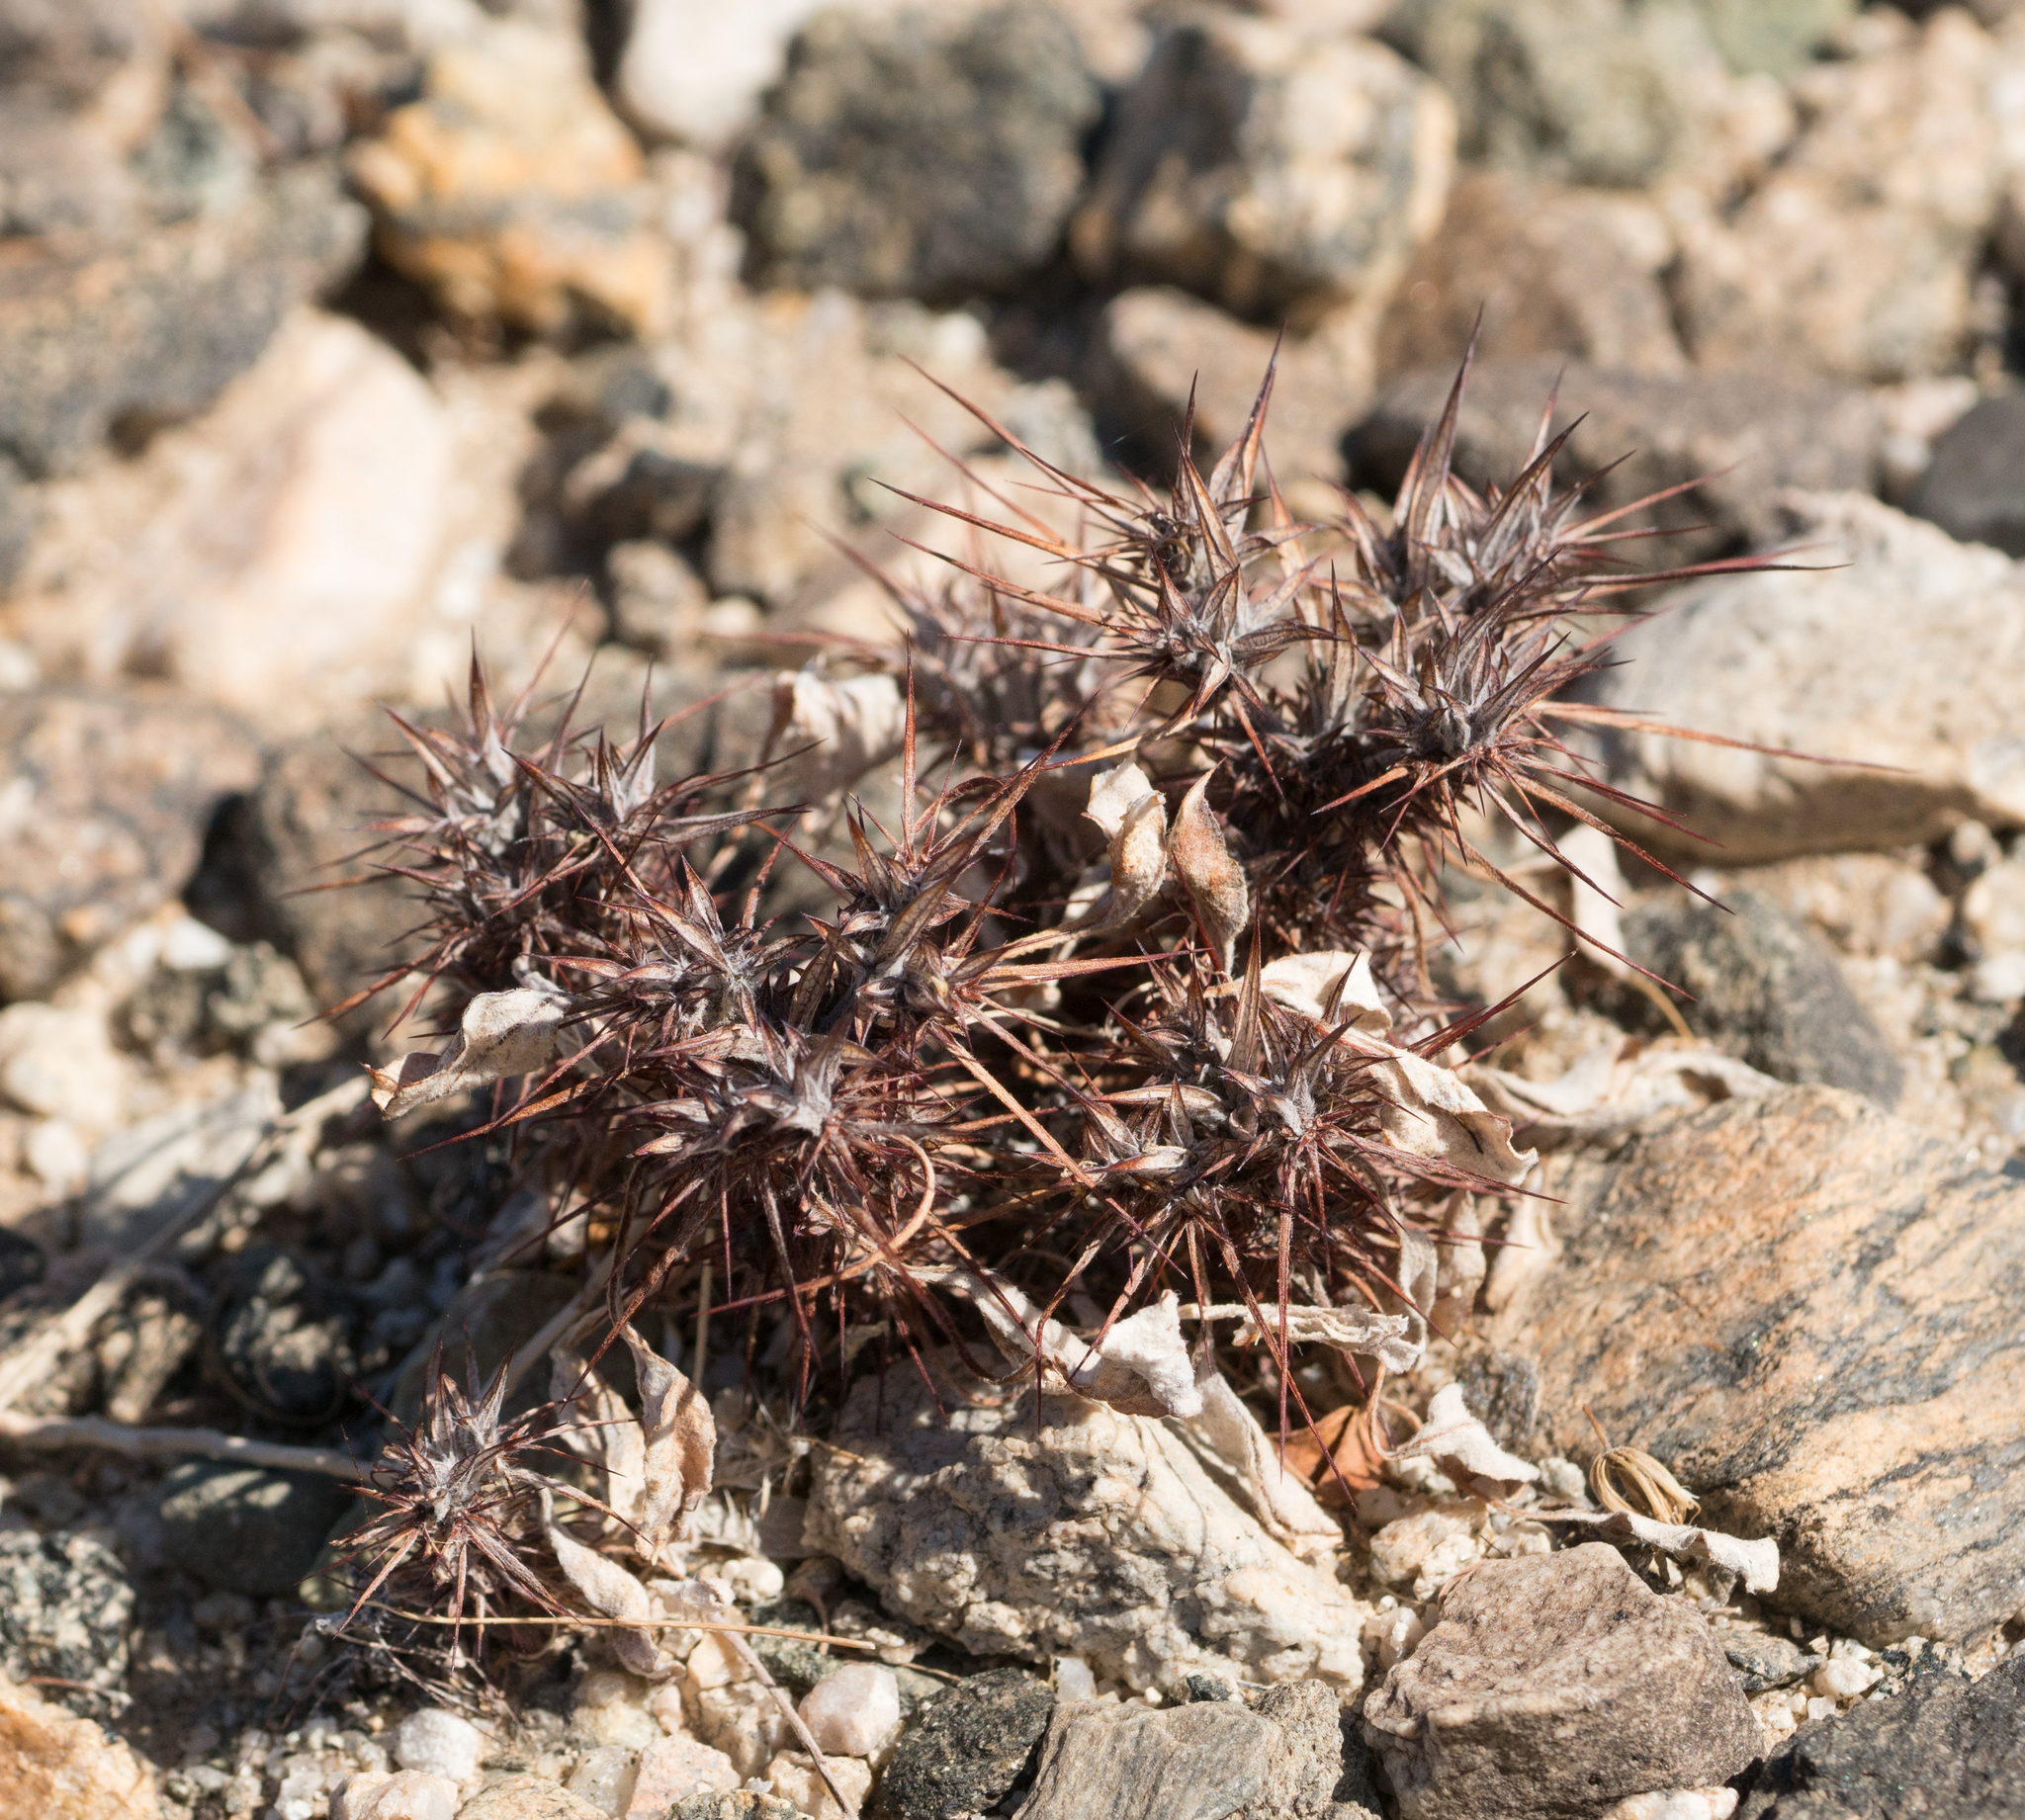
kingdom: Plantae
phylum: Tracheophyta
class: Magnoliopsida
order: Caryophyllales
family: Polygonaceae
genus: Chorizanthe
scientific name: Chorizanthe rigida
